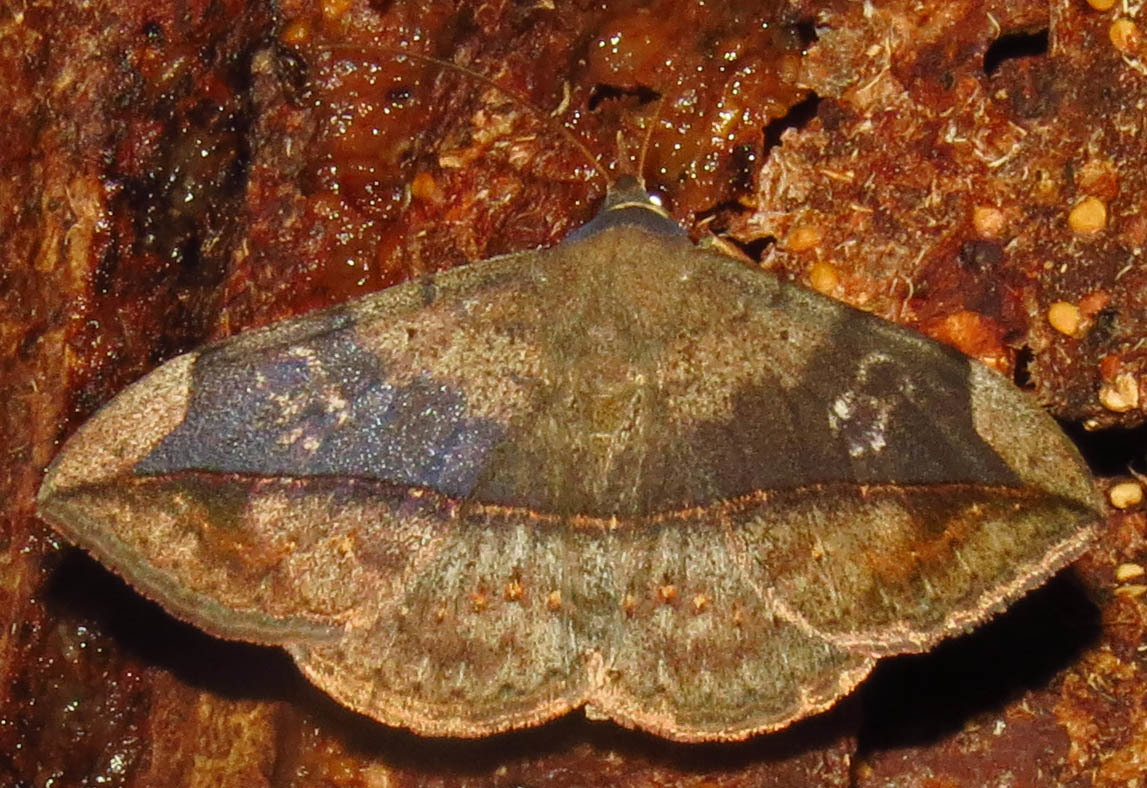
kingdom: Animalia
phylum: Arthropoda
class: Insecta
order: Lepidoptera
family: Erebidae
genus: Anticarsia
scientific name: Anticarsia gemmatalis
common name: Cutworm moth
